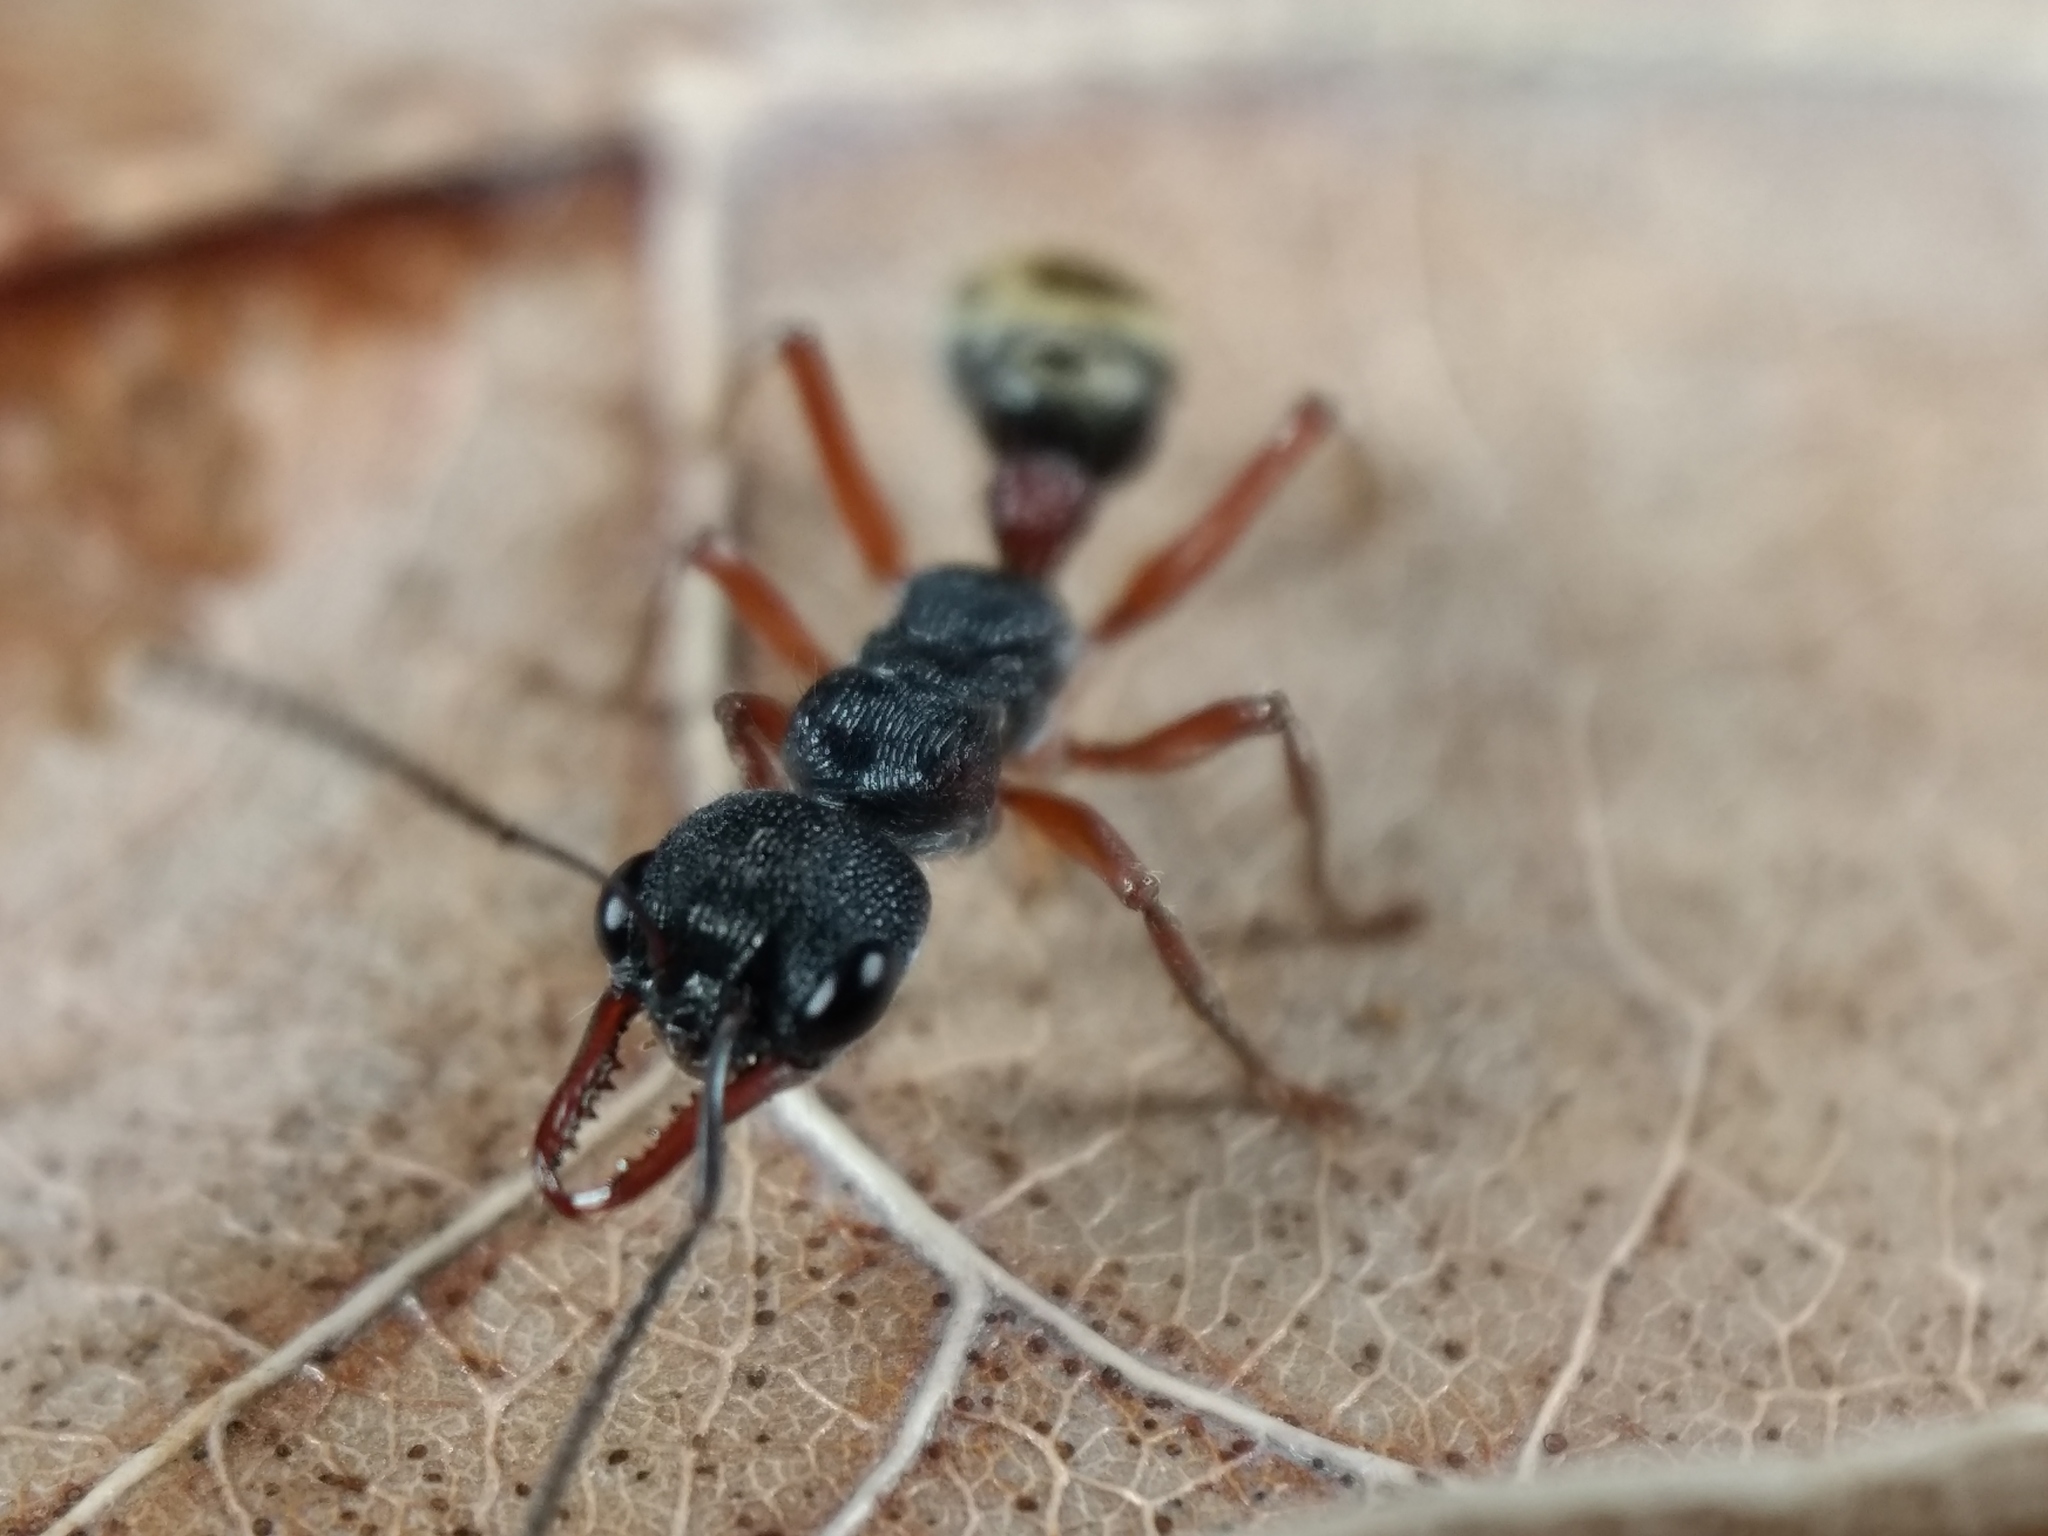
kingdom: Animalia
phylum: Arthropoda
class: Insecta
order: Hymenoptera
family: Formicidae
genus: Myrmecia
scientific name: Myrmecia chrysogaster
